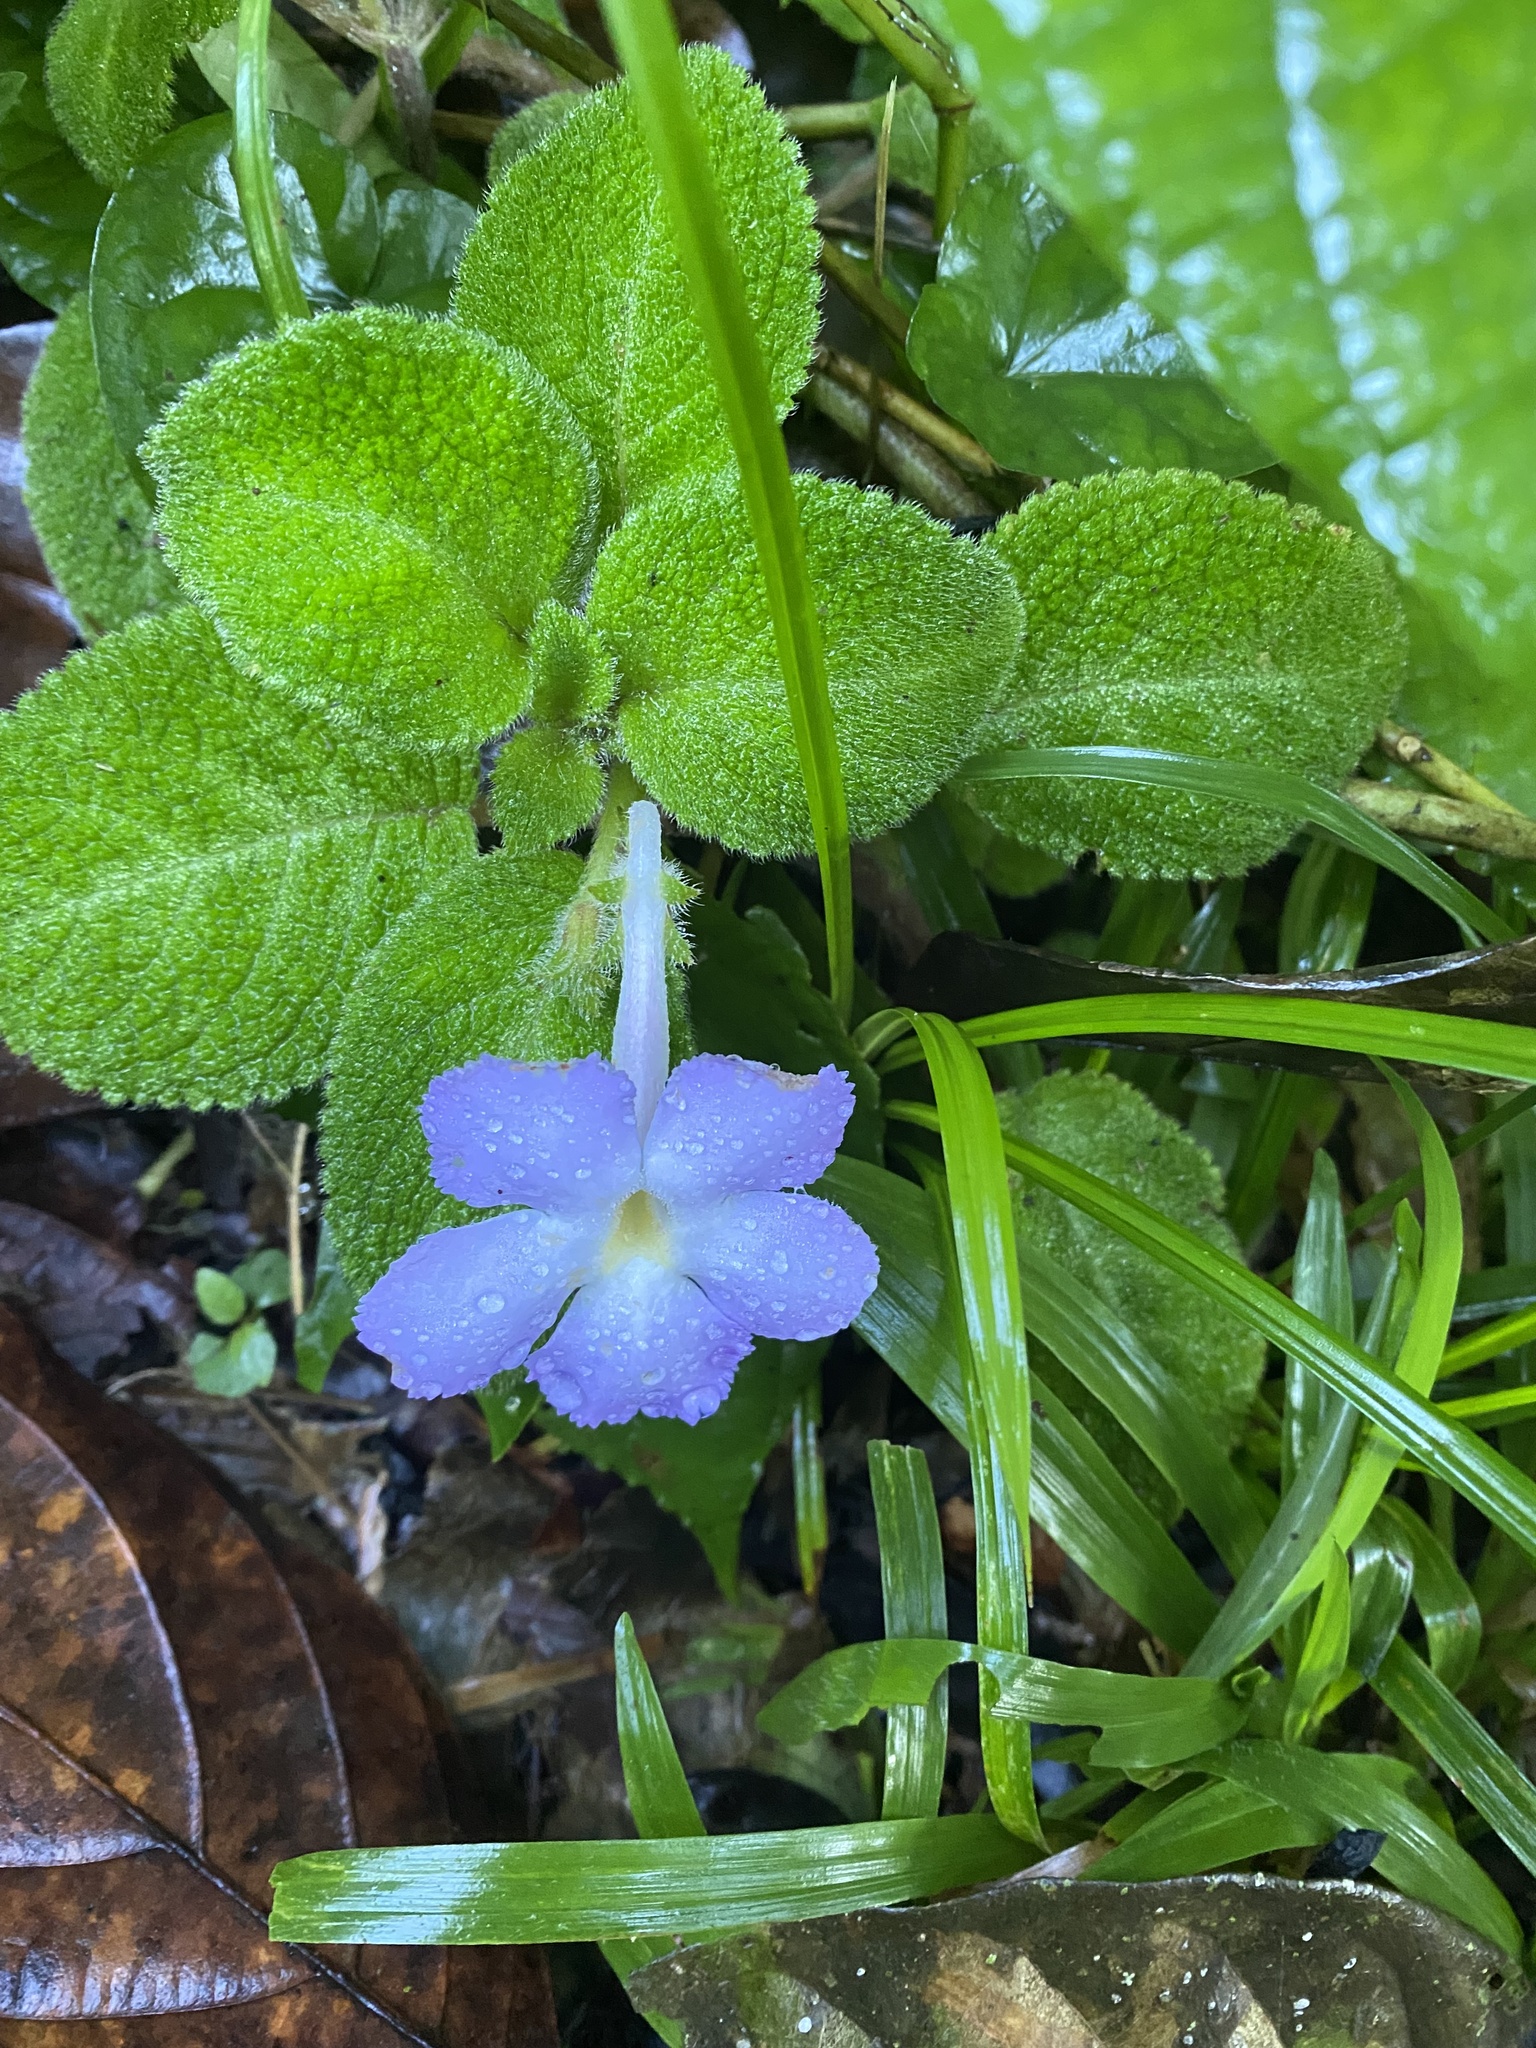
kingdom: Plantae
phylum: Tracheophyta
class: Magnoliopsida
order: Lamiales
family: Gesneriaceae
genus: Episcia
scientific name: Episcia lilacina
